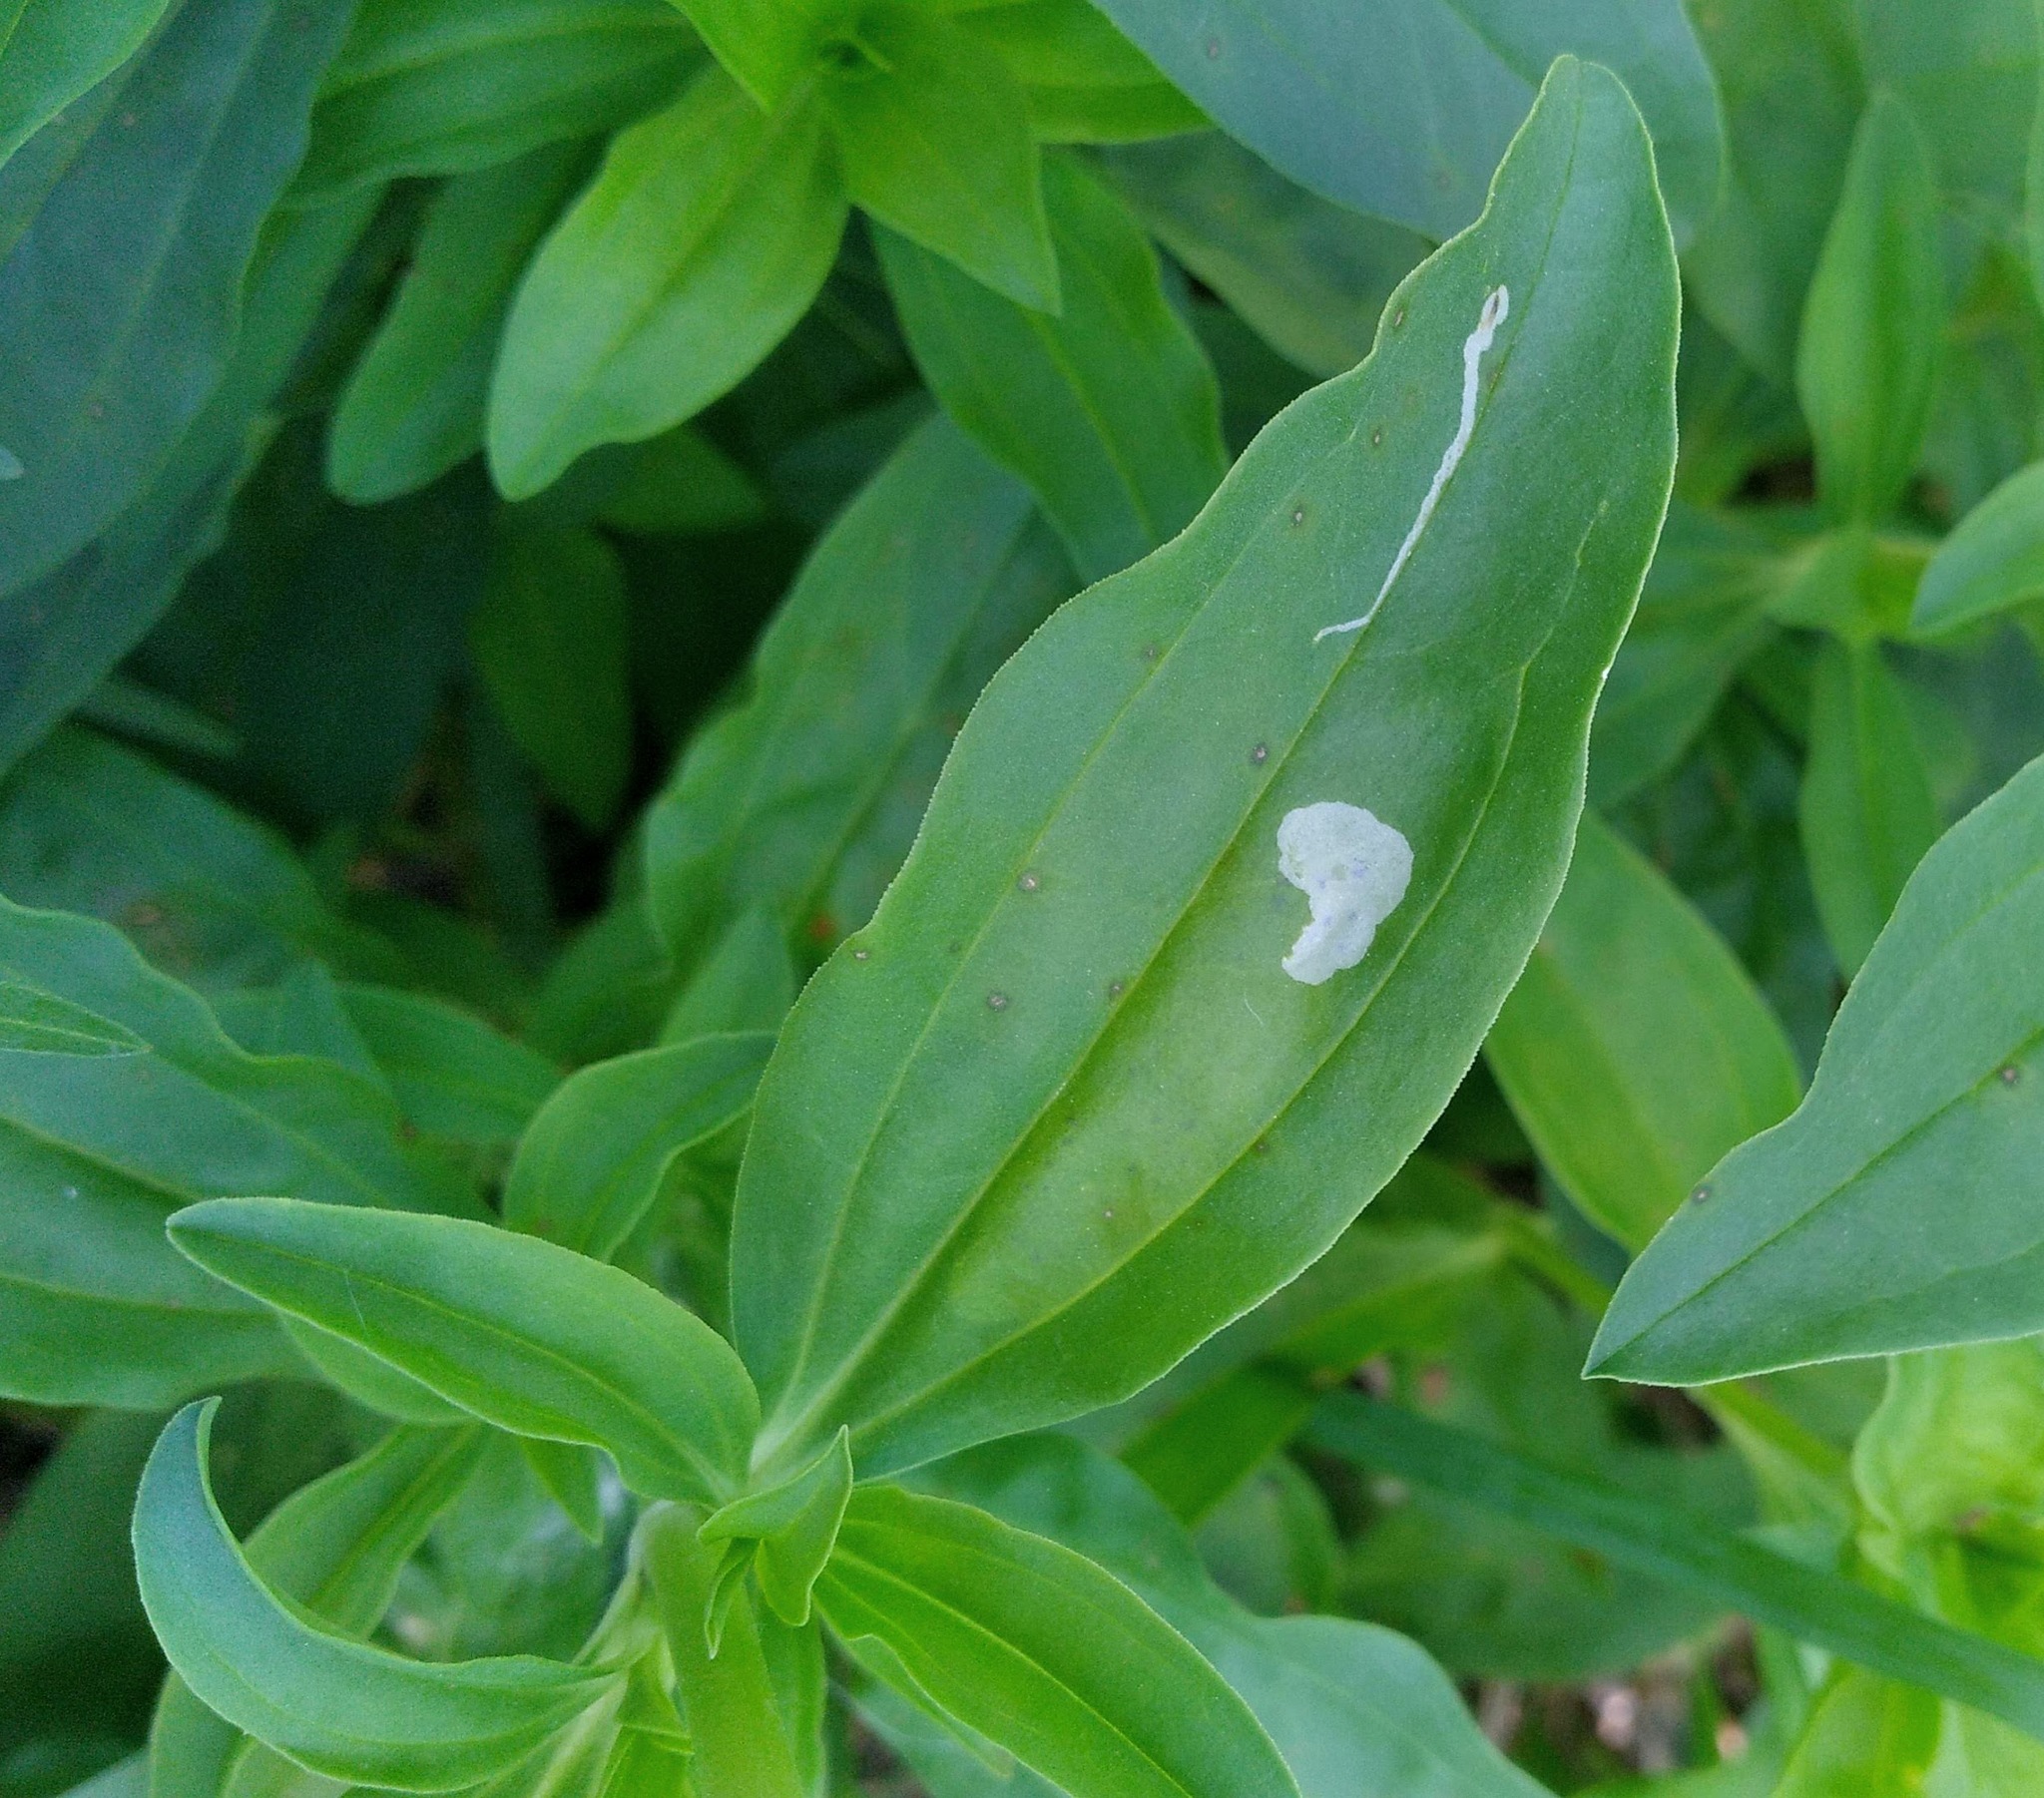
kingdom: Animalia
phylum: Arthropoda
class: Insecta
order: Diptera
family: Agromyzidae
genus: Amauromyza
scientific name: Amauromyza flavifrons
